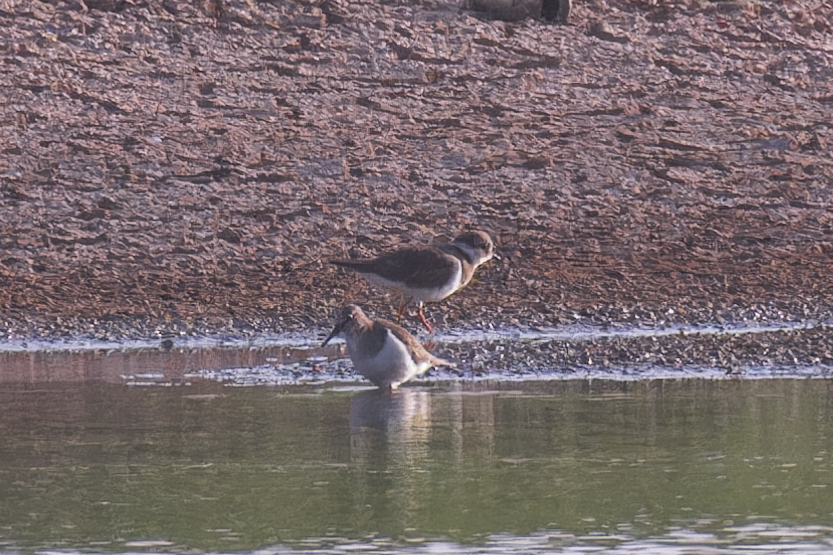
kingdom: Animalia
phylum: Chordata
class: Aves
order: Charadriiformes
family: Scolopacidae
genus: Actitis
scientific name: Actitis hypoleucos
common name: Common sandpiper
